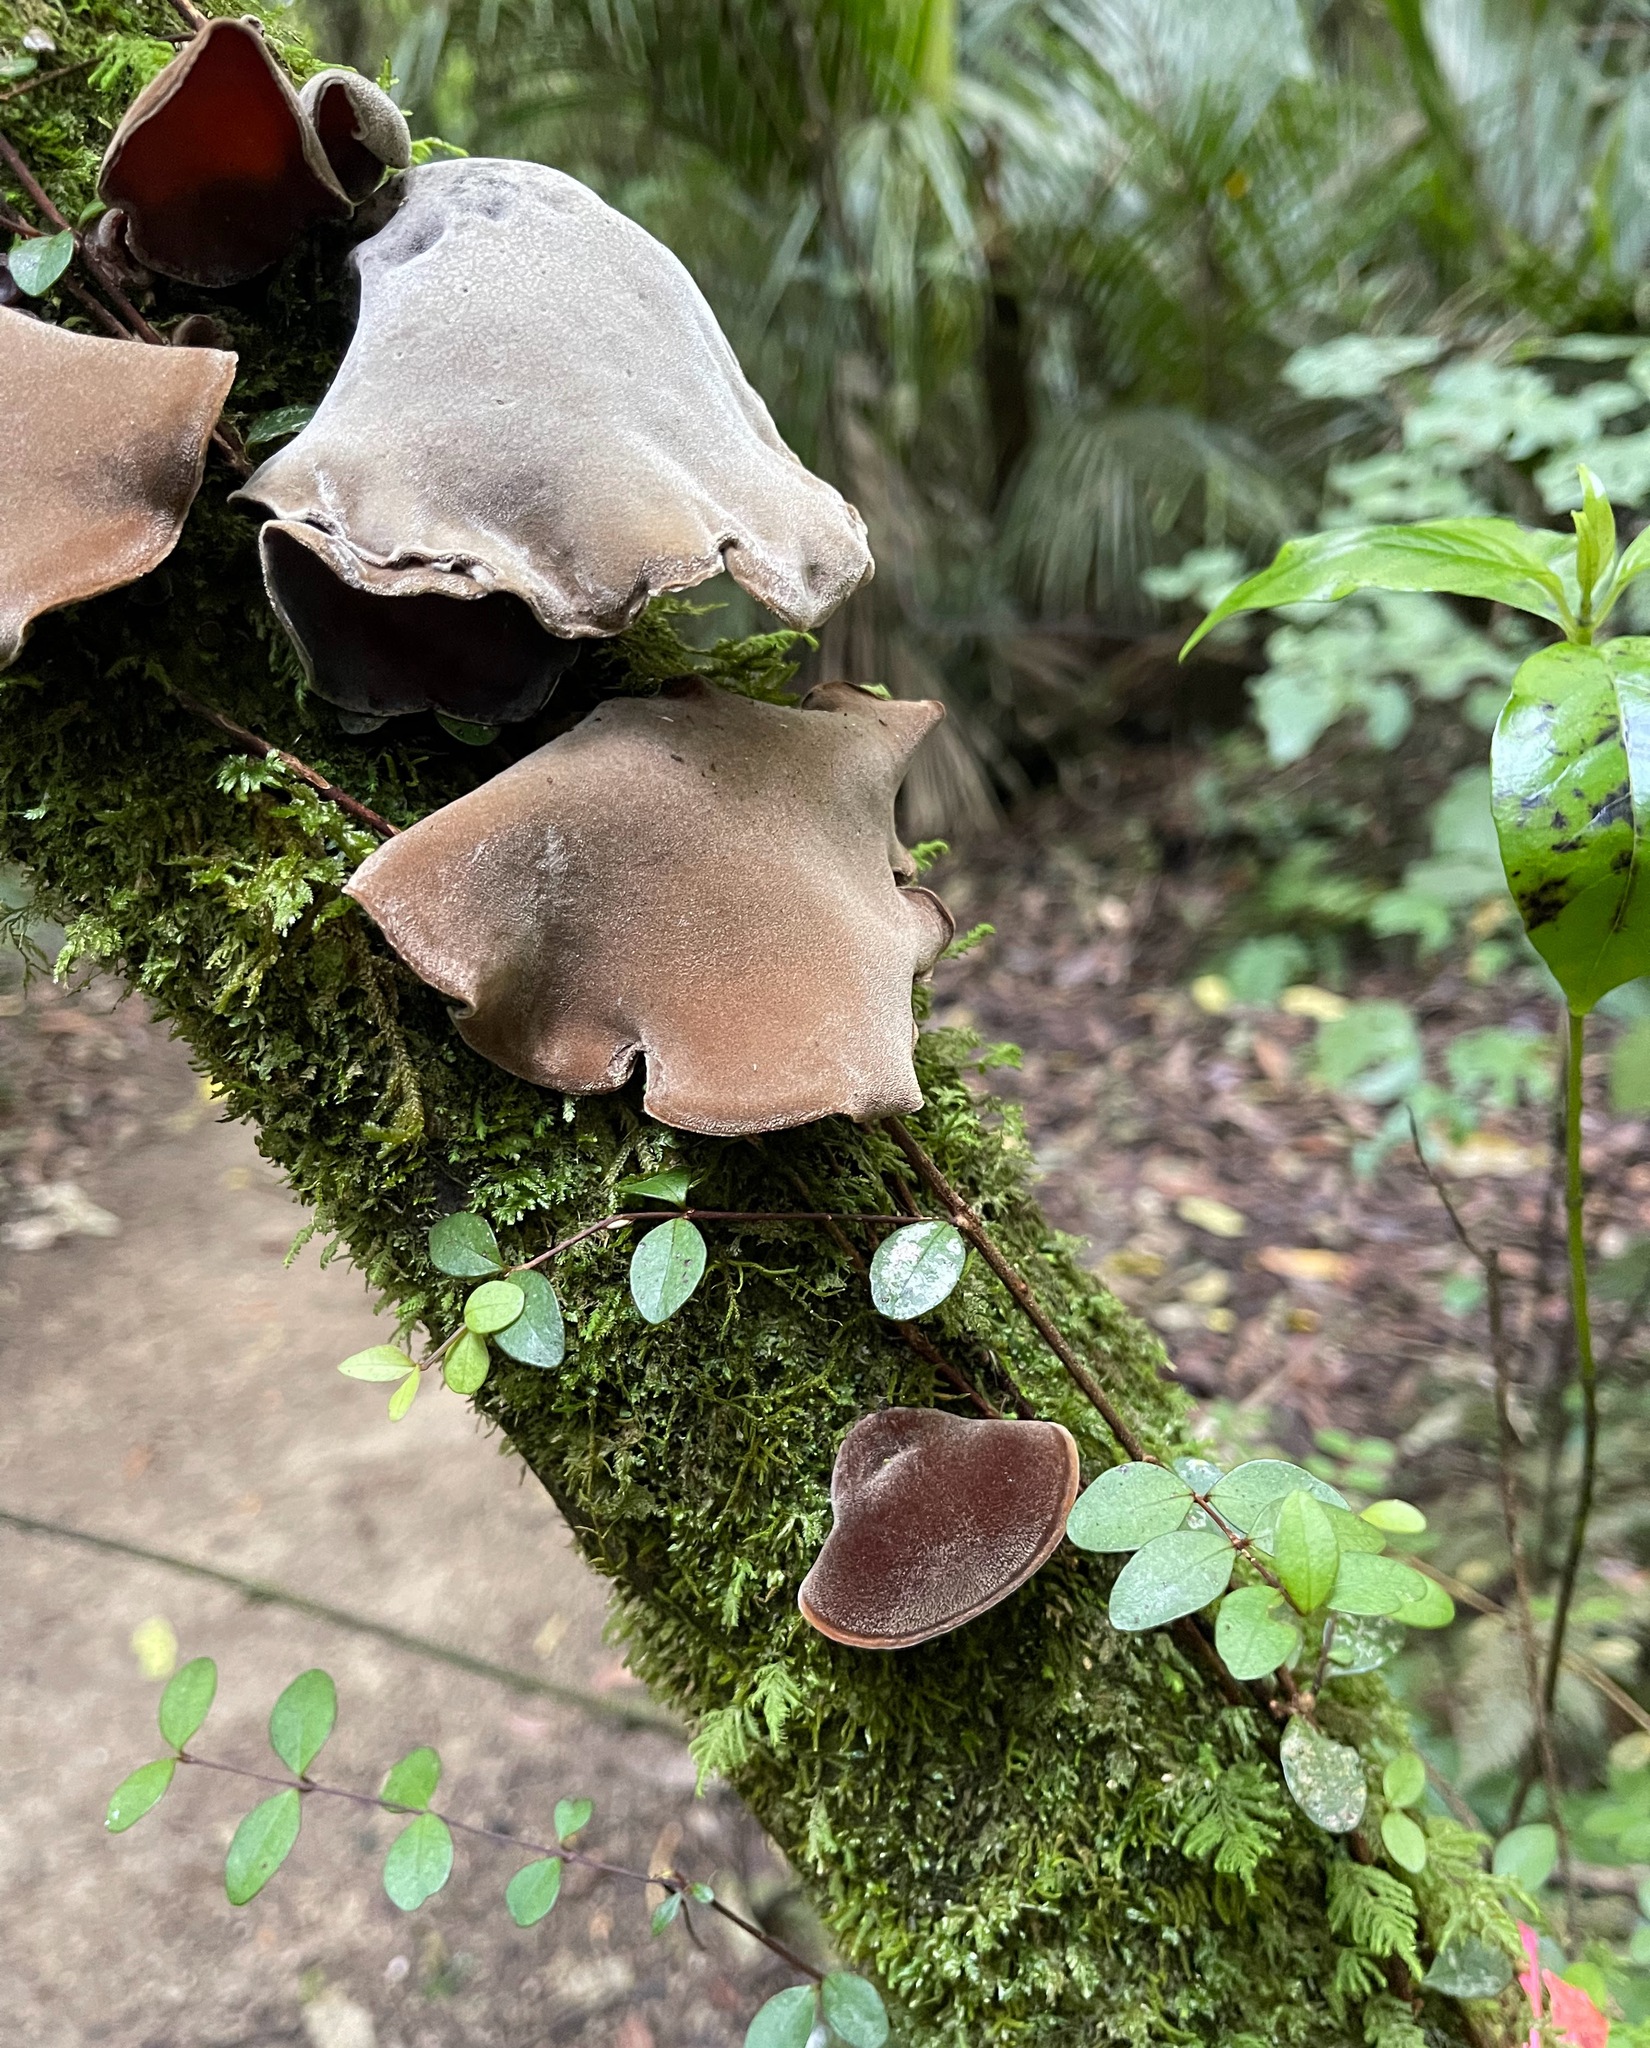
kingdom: Fungi
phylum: Basidiomycota
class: Agaricomycetes
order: Auriculariales
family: Auriculariaceae
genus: Auricularia
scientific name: Auricularia cornea
